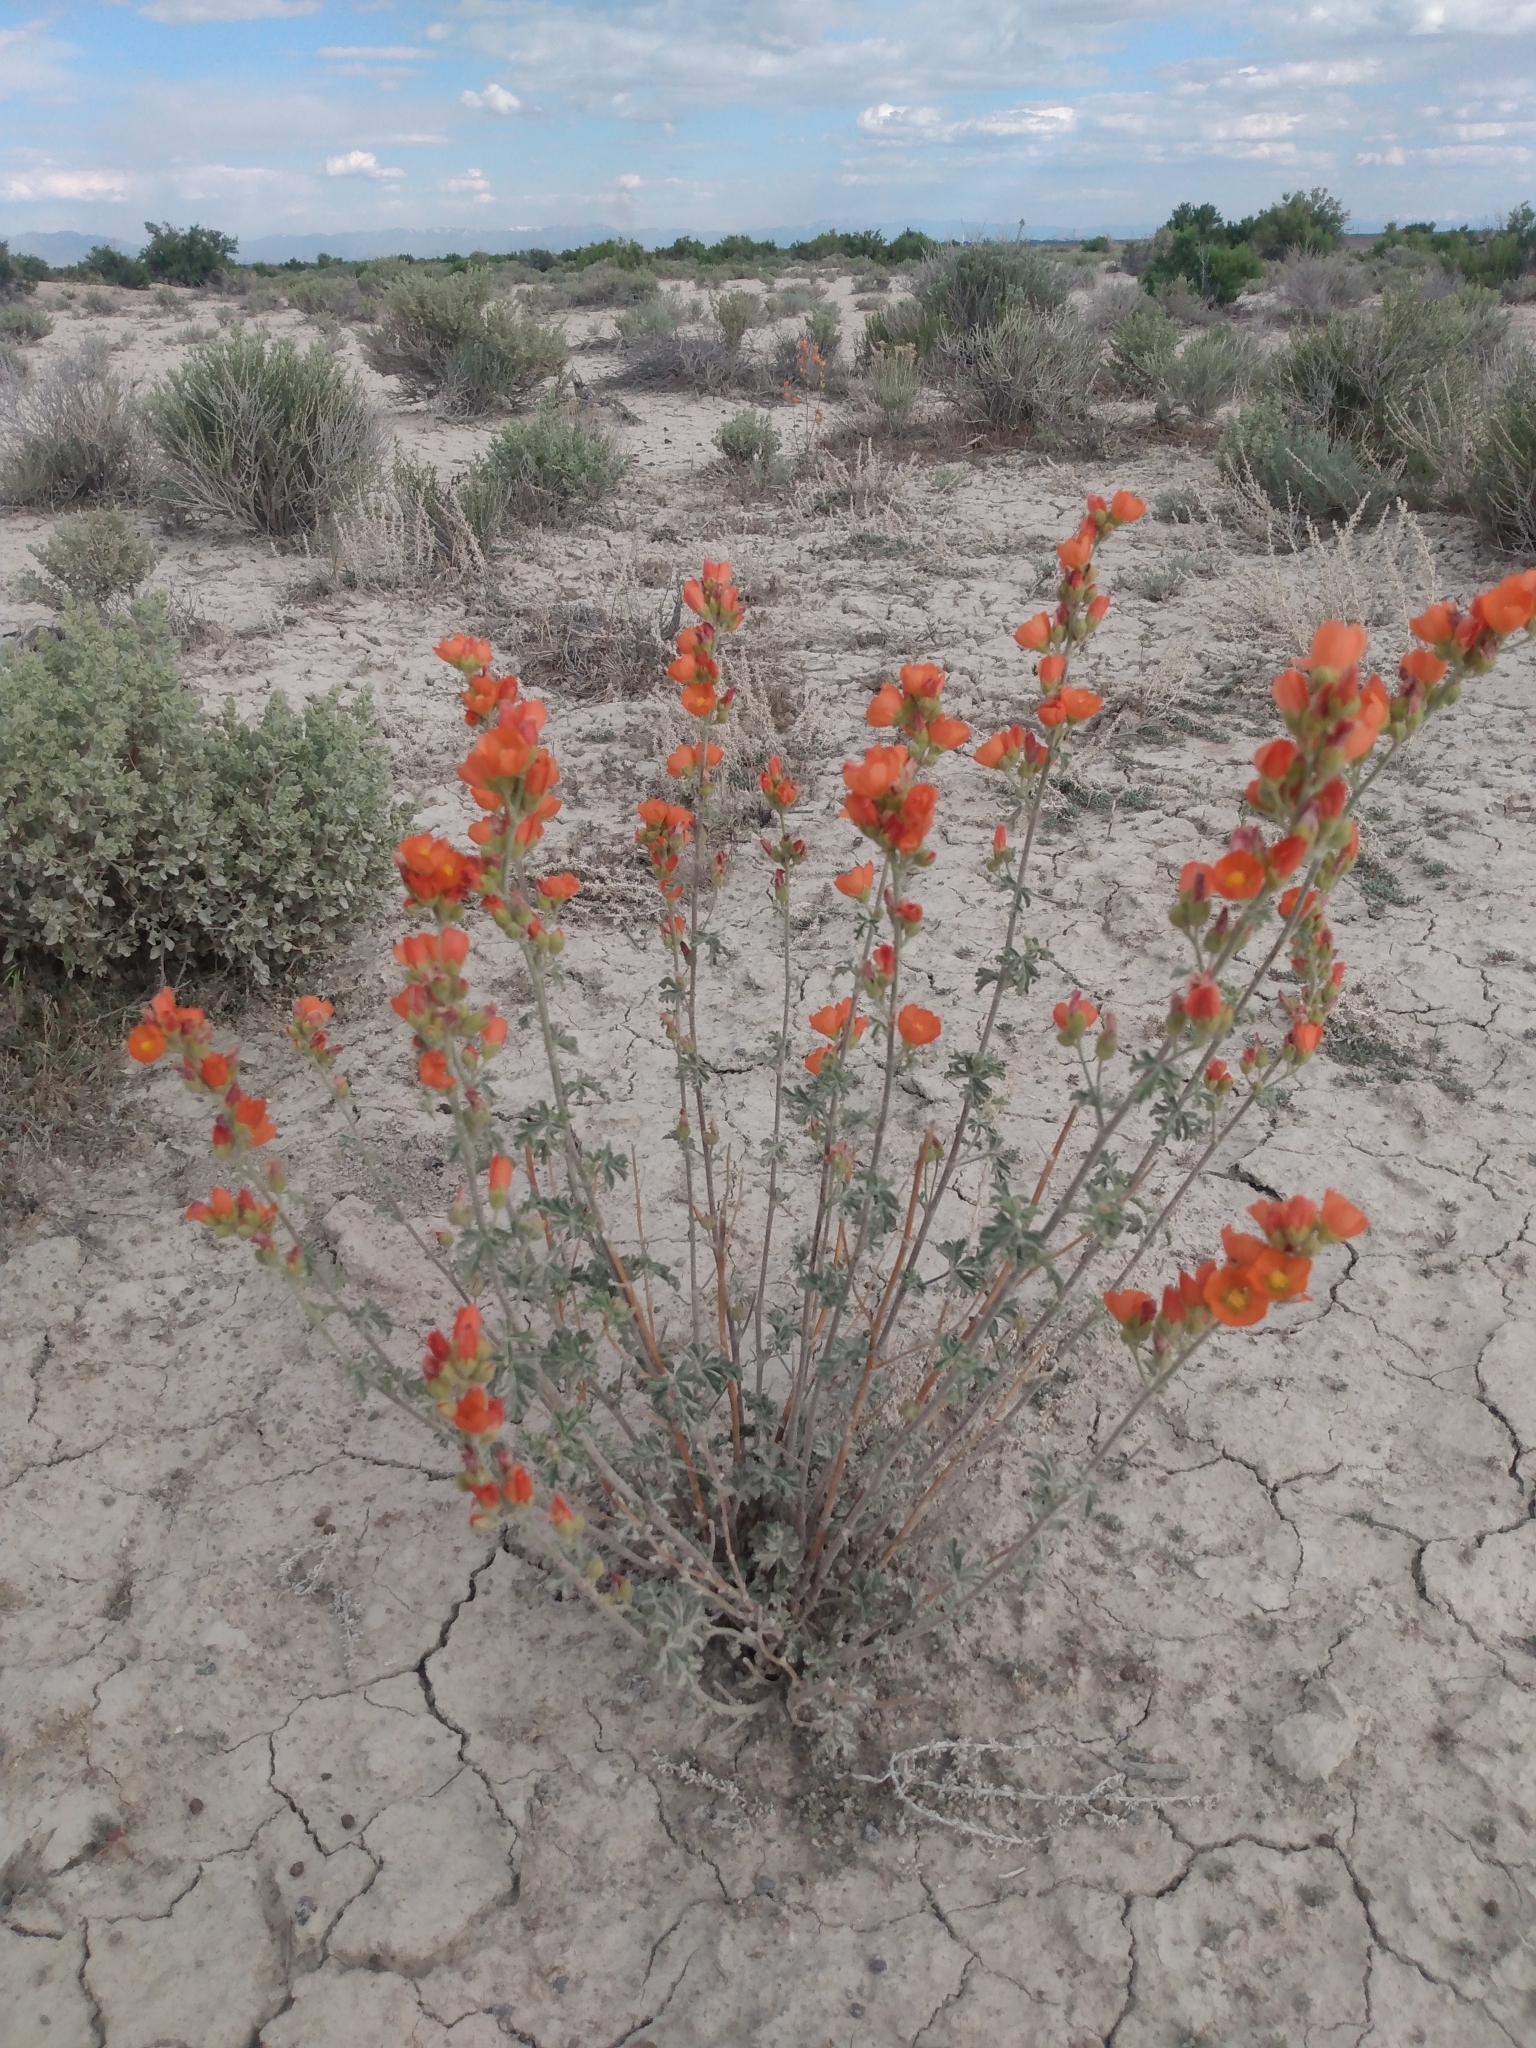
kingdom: Plantae
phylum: Tracheophyta
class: Magnoliopsida
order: Malvales
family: Malvaceae
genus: Sphaeralcea
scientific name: Sphaeralcea grossulariifolia
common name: Current-leaf globe-mallow
